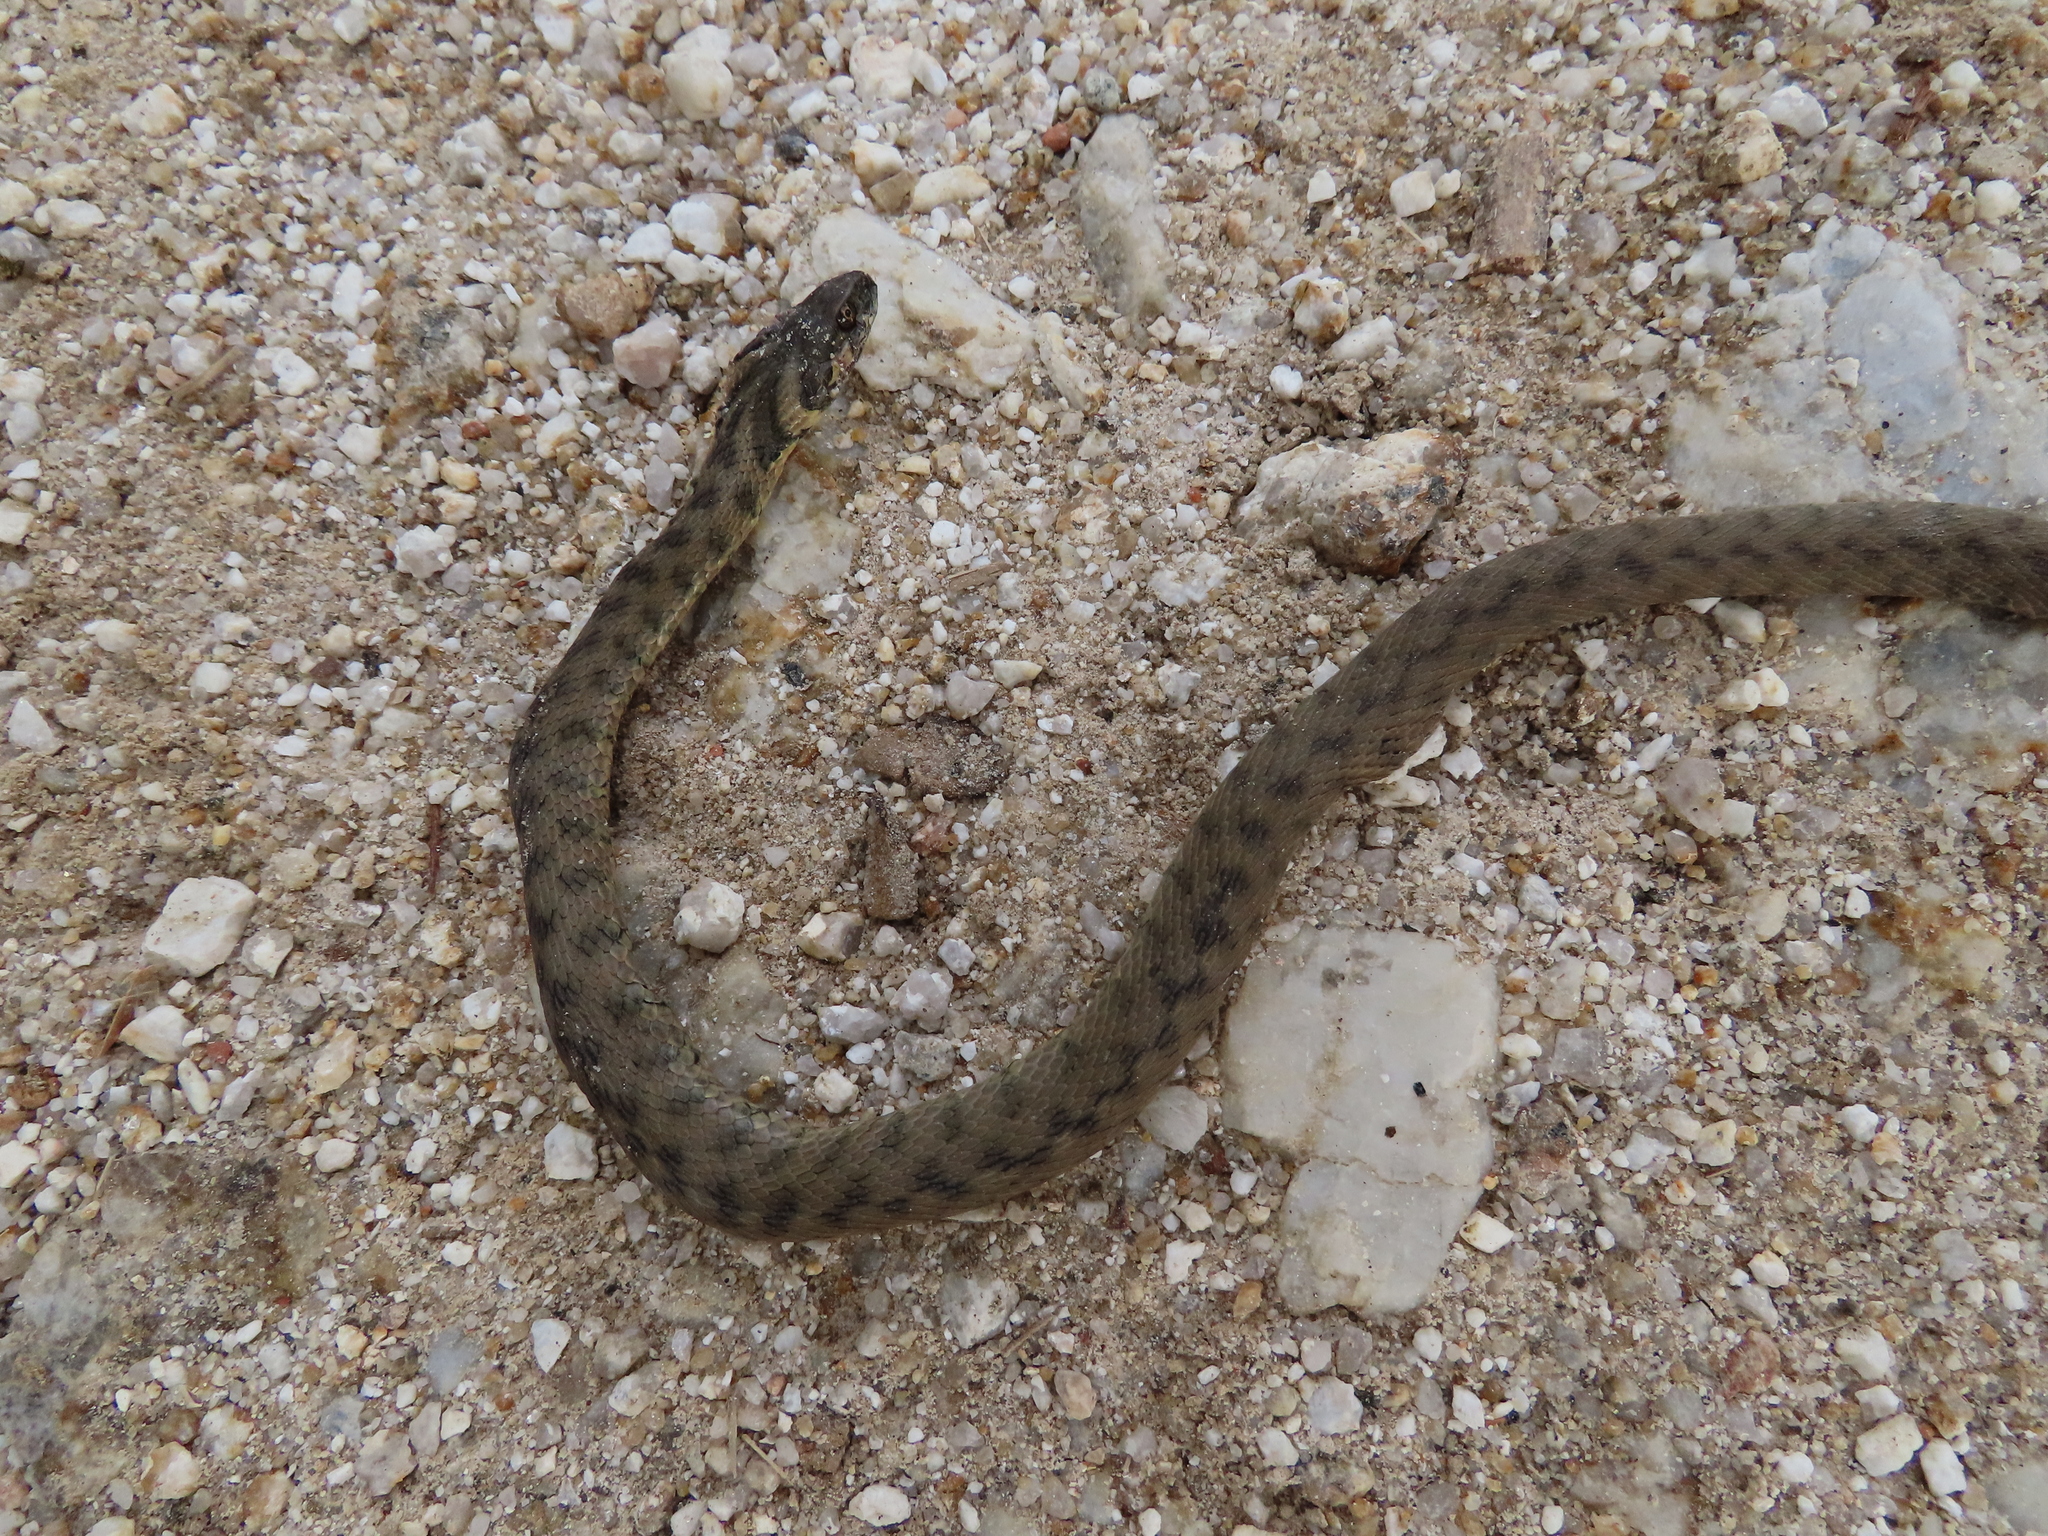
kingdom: Animalia
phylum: Chordata
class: Squamata
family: Colubridae
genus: Natrix
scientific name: Natrix maura
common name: Viperine water snake
